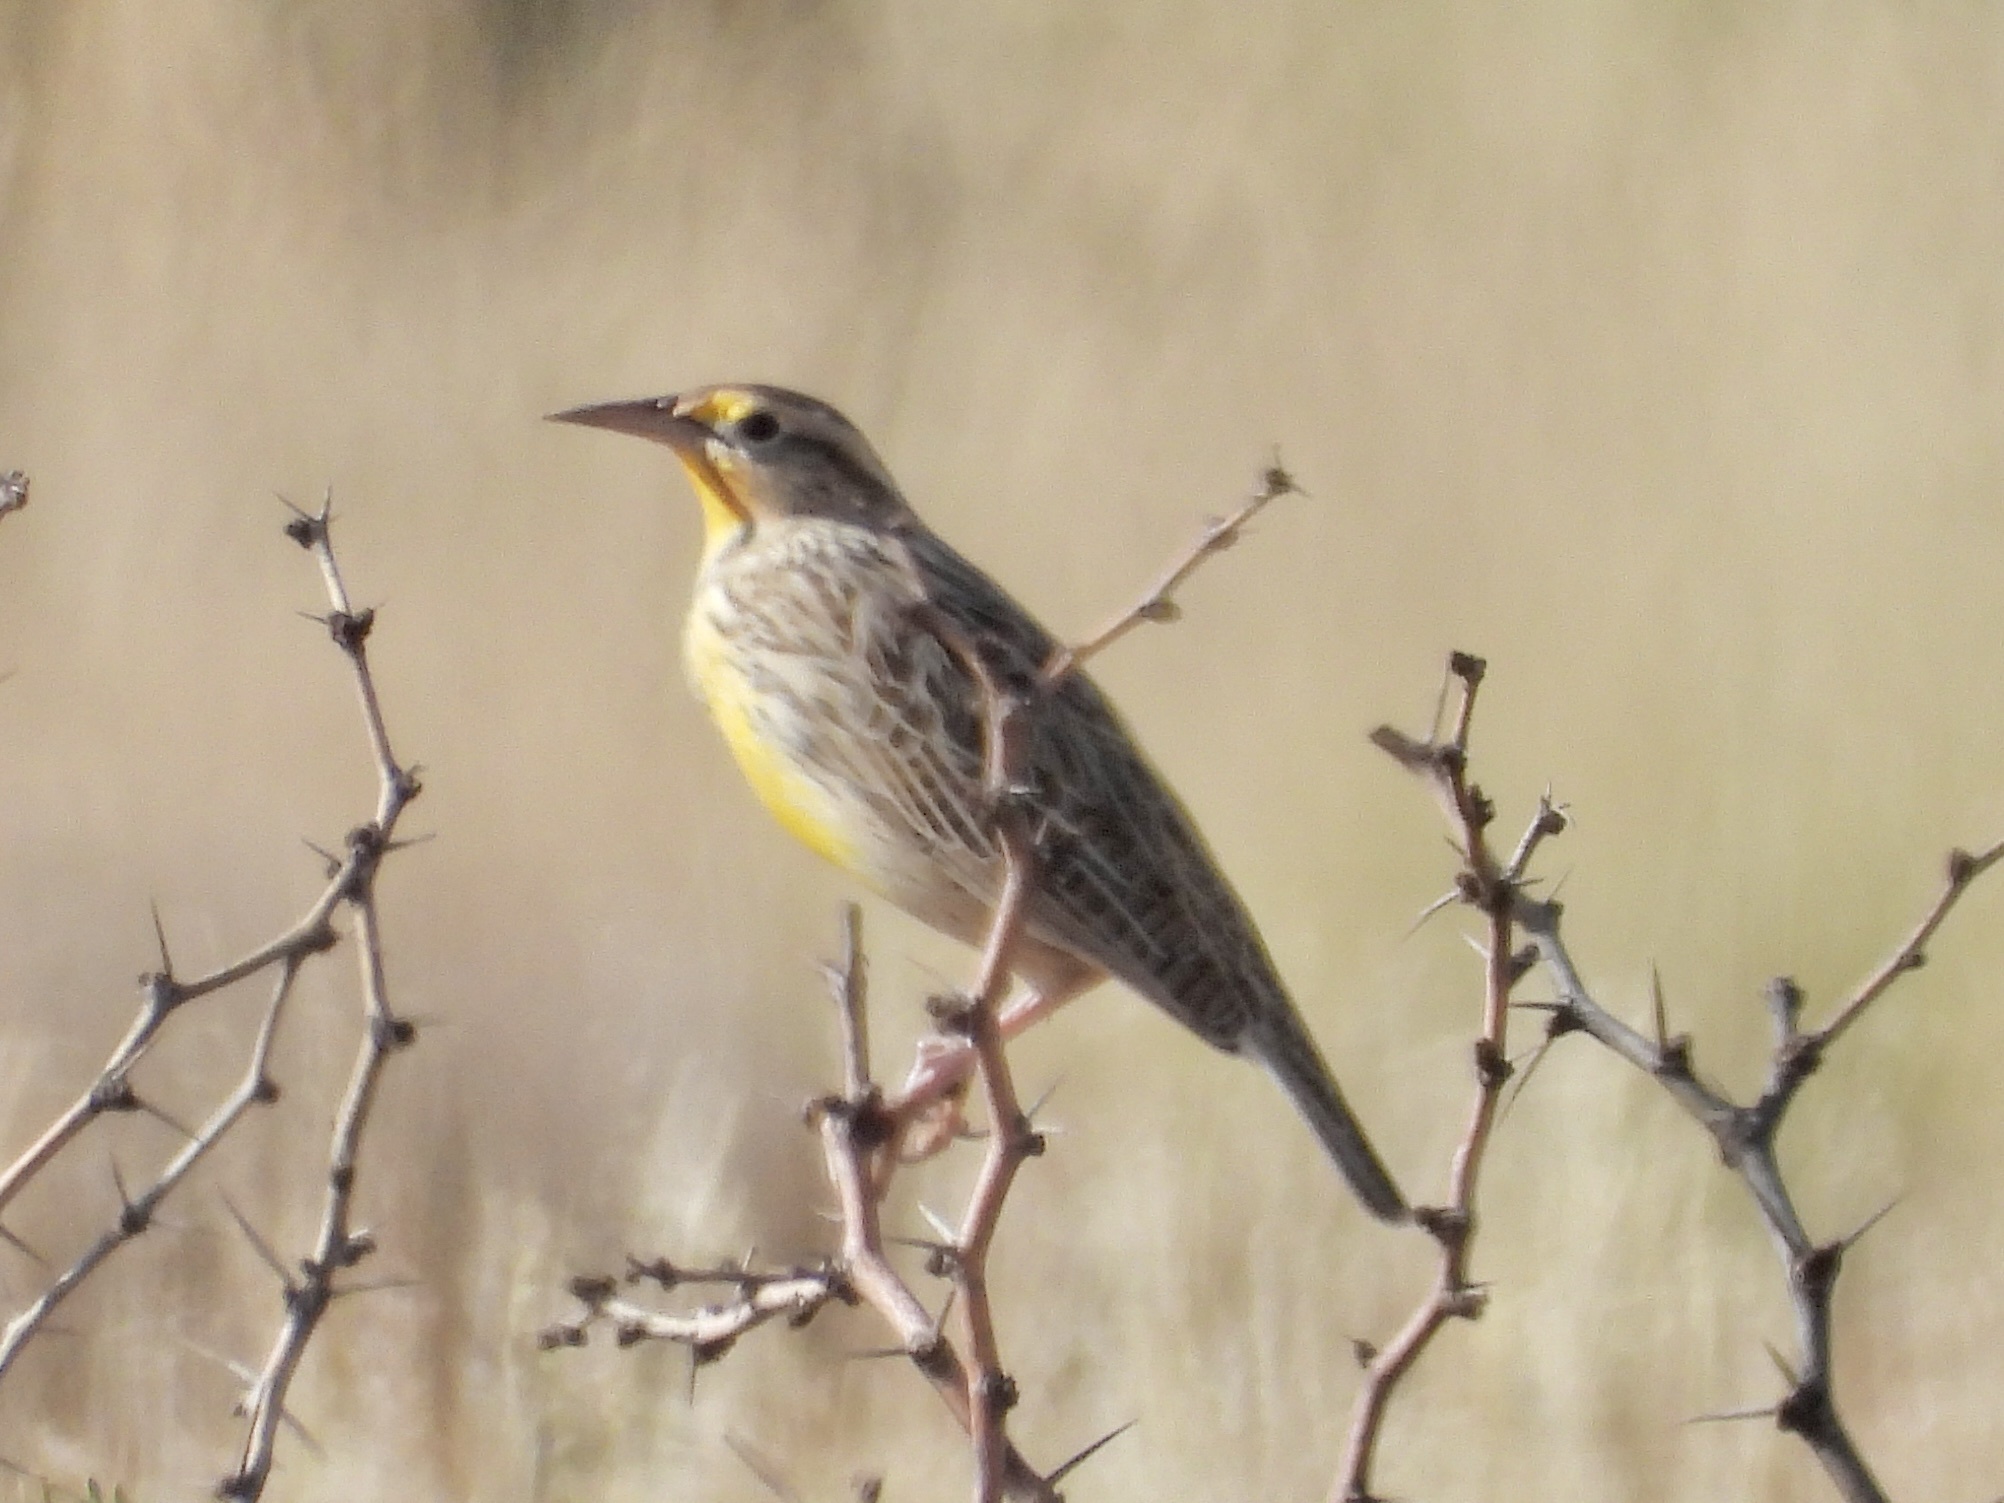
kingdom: Animalia
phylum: Chordata
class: Aves
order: Passeriformes
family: Icteridae
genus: Sturnella
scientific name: Sturnella neglecta
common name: Western meadowlark
